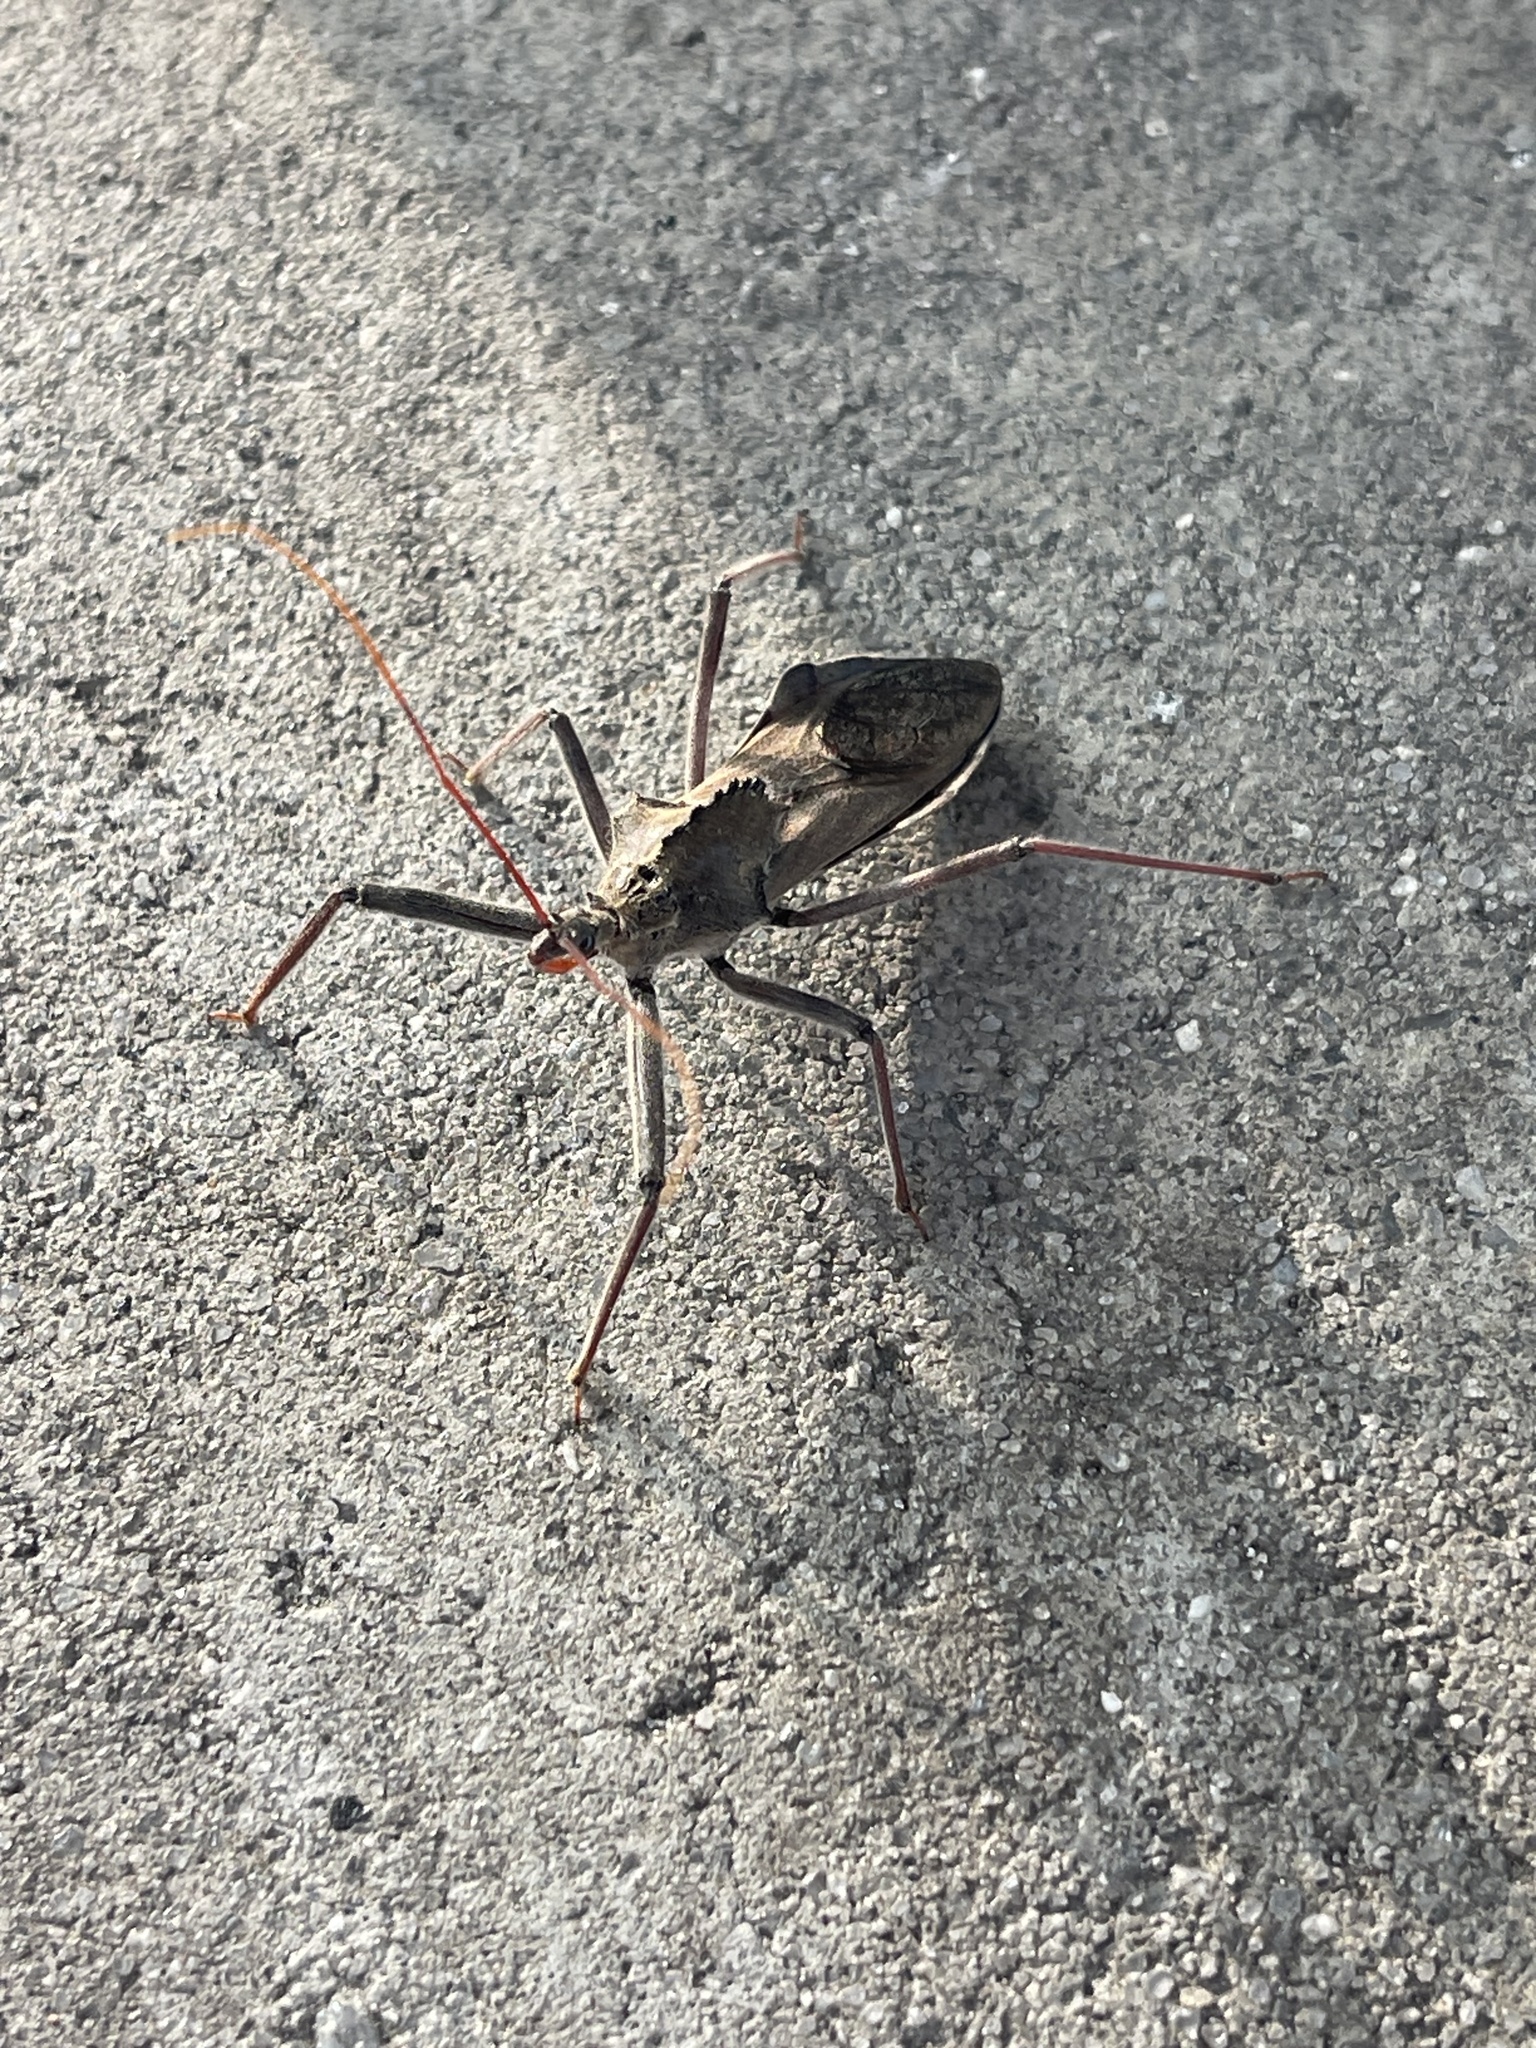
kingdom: Animalia
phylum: Arthropoda
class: Insecta
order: Hemiptera
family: Reduviidae
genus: Arilus
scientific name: Arilus cristatus
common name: North american wheel bug
